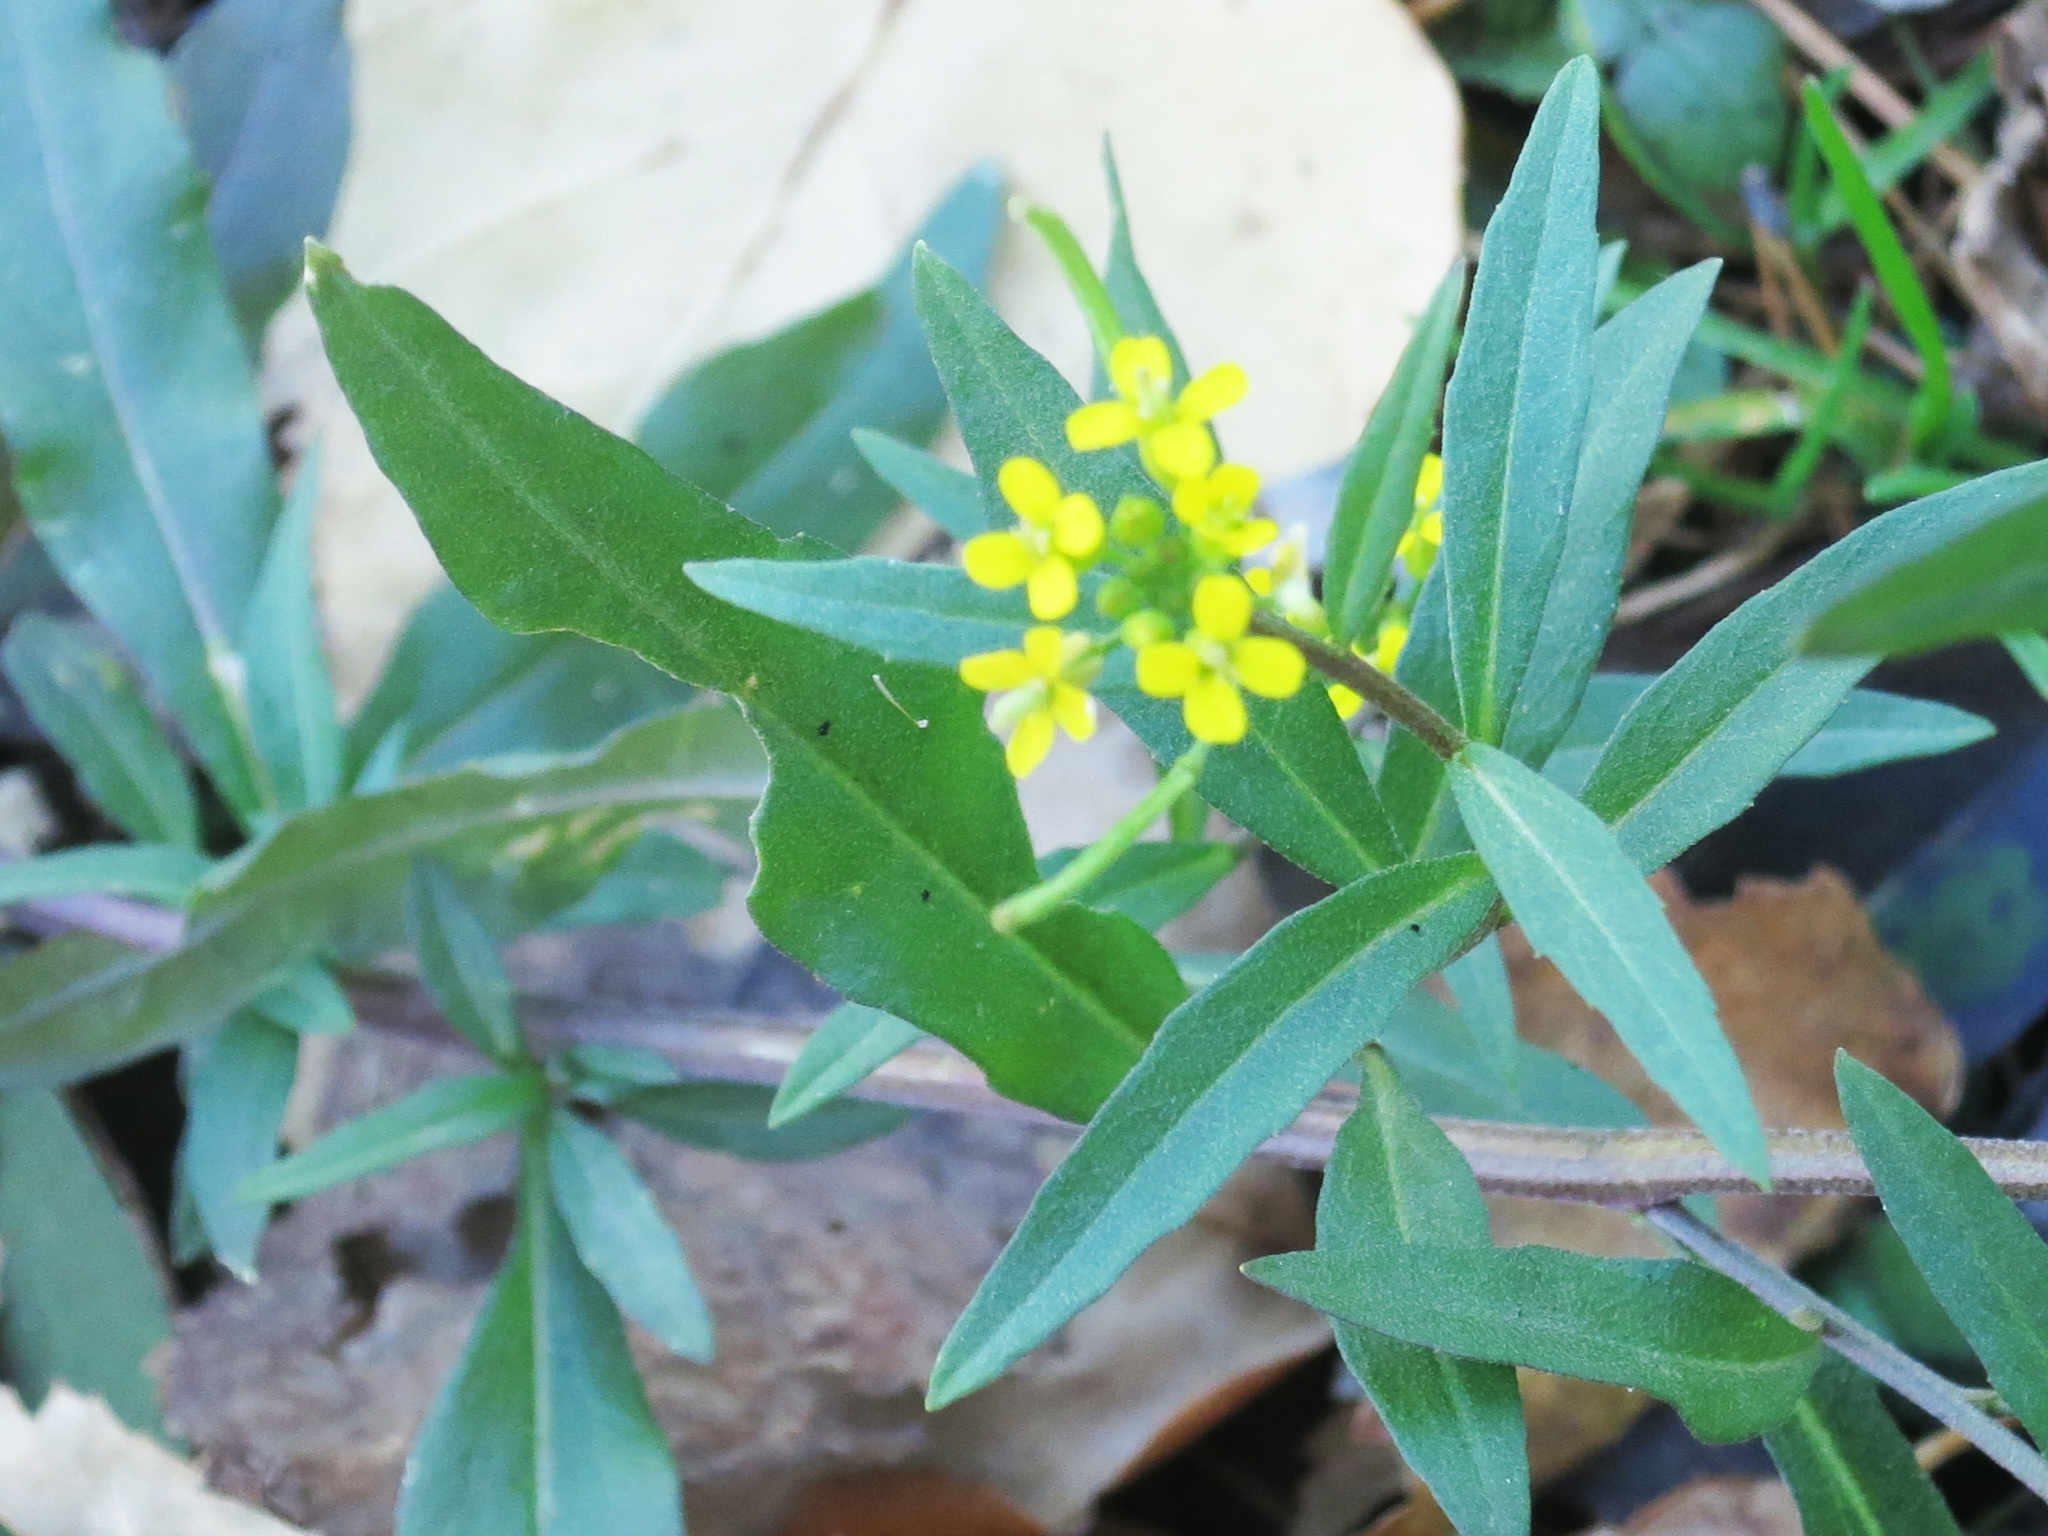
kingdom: Plantae
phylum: Tracheophyta
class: Magnoliopsida
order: Brassicales
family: Brassicaceae
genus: Erysimum
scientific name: Erysimum cheiranthoides
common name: Treacle mustard
